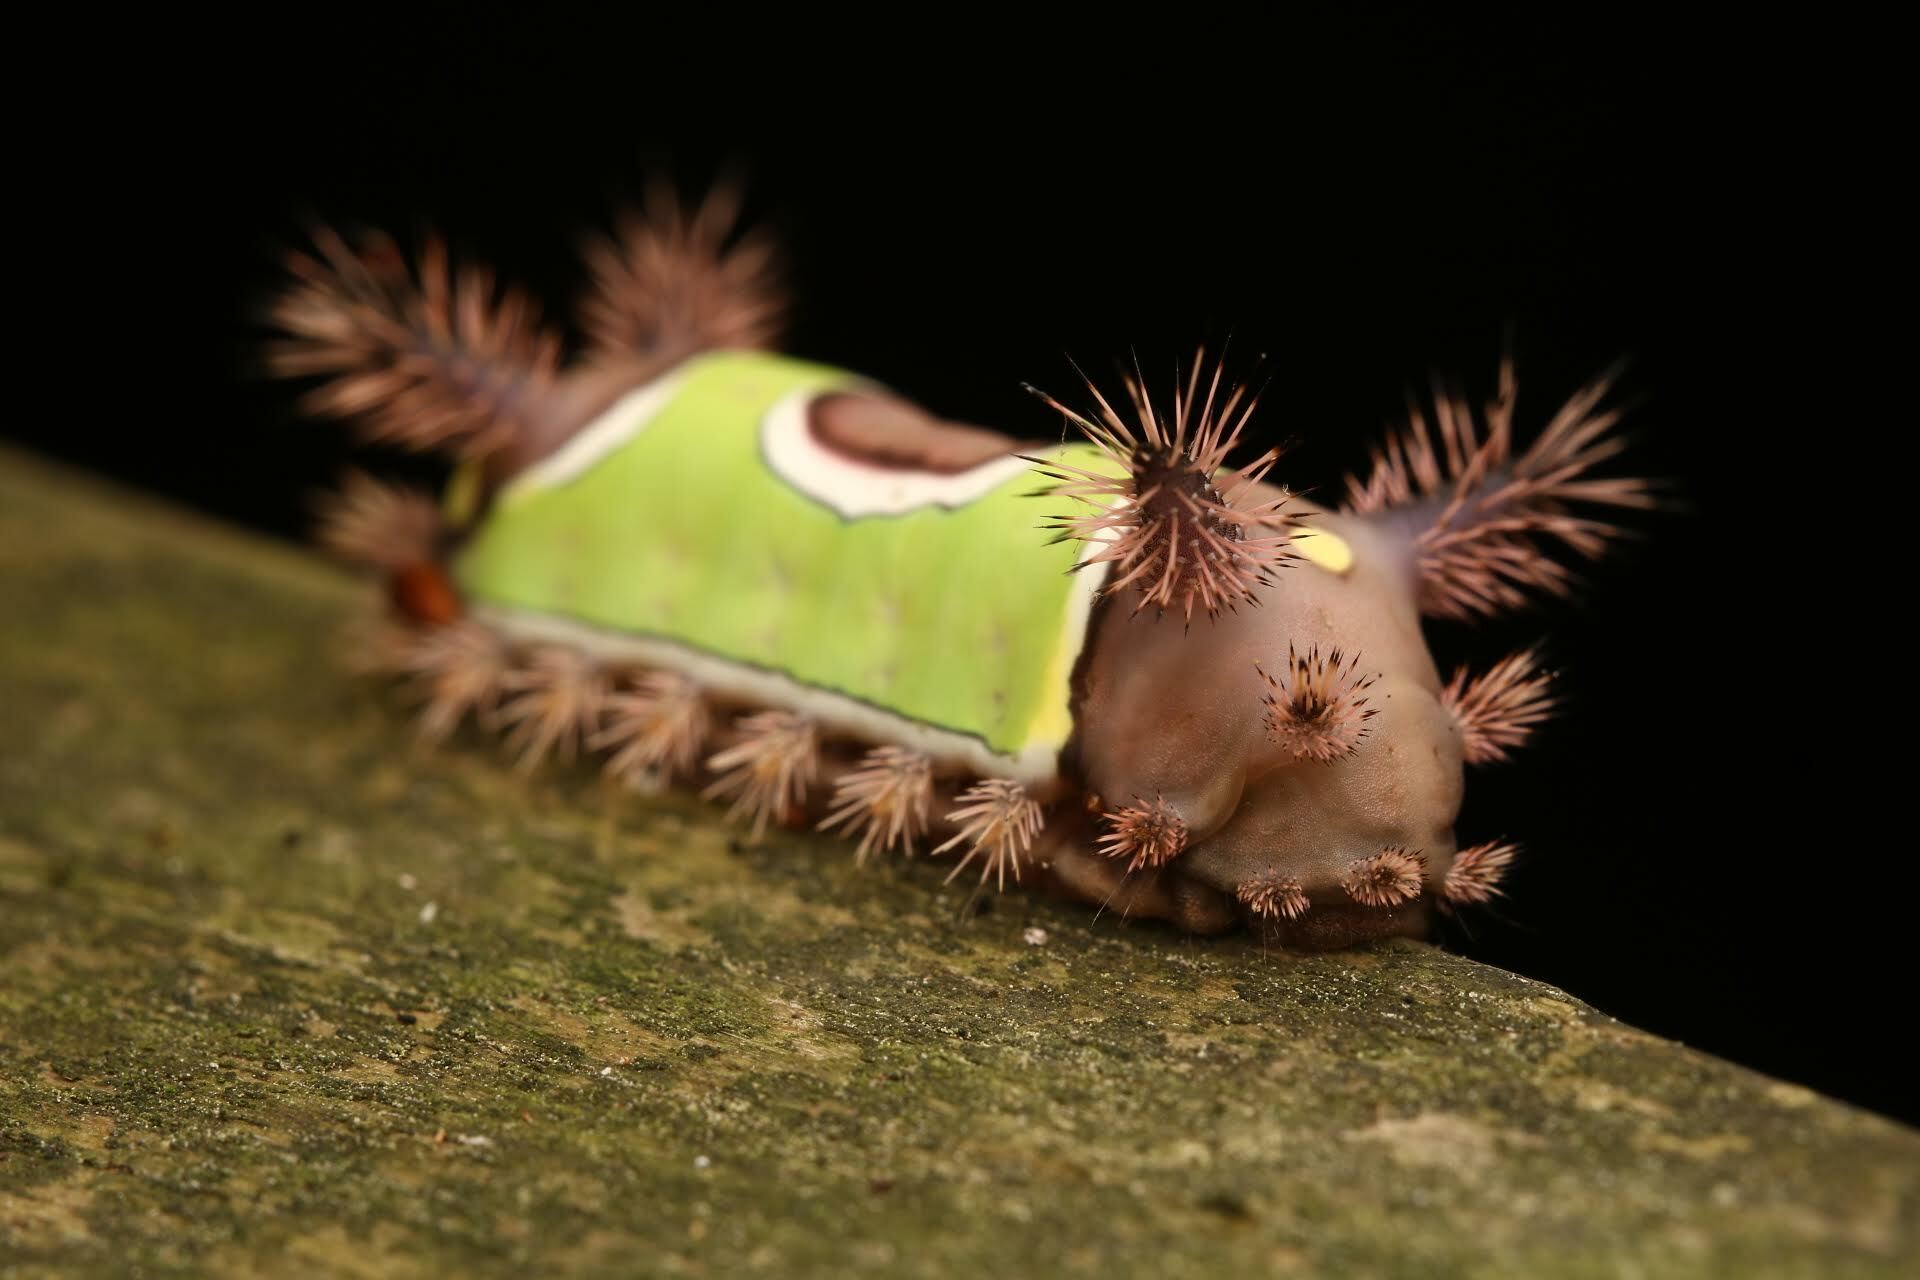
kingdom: Animalia
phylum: Arthropoda
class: Insecta
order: Lepidoptera
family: Limacodidae
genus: Acharia
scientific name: Acharia stimulea
